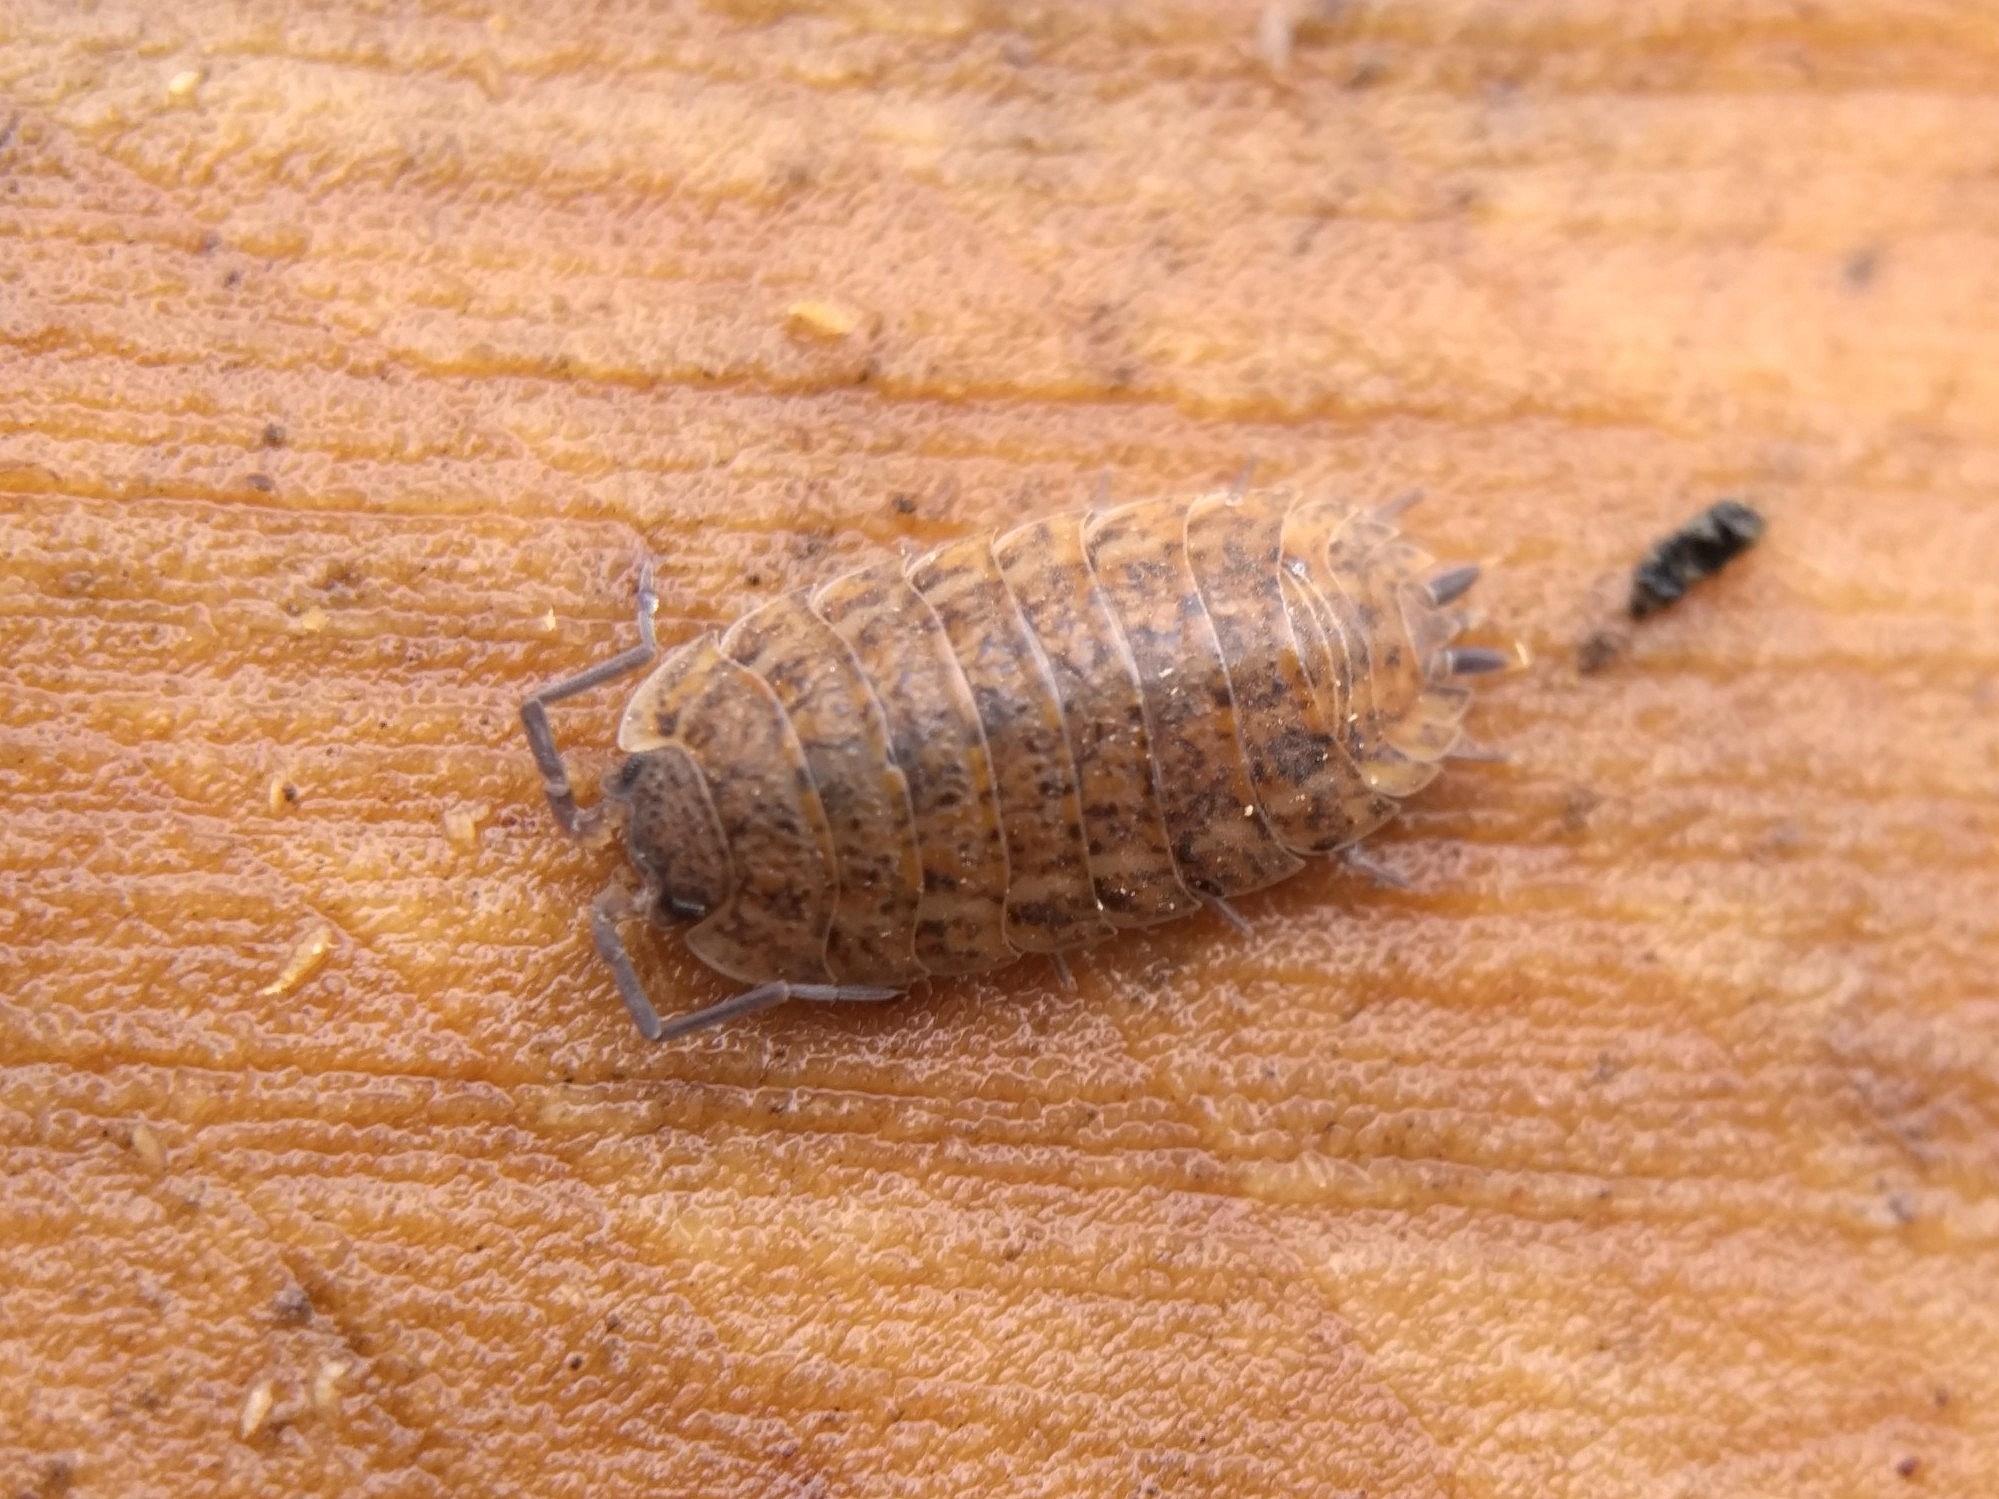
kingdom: Animalia
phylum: Arthropoda
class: Malacostraca
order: Isopoda
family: Trachelipodidae
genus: Trachelipus
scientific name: Trachelipus rathkii
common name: Isopod
